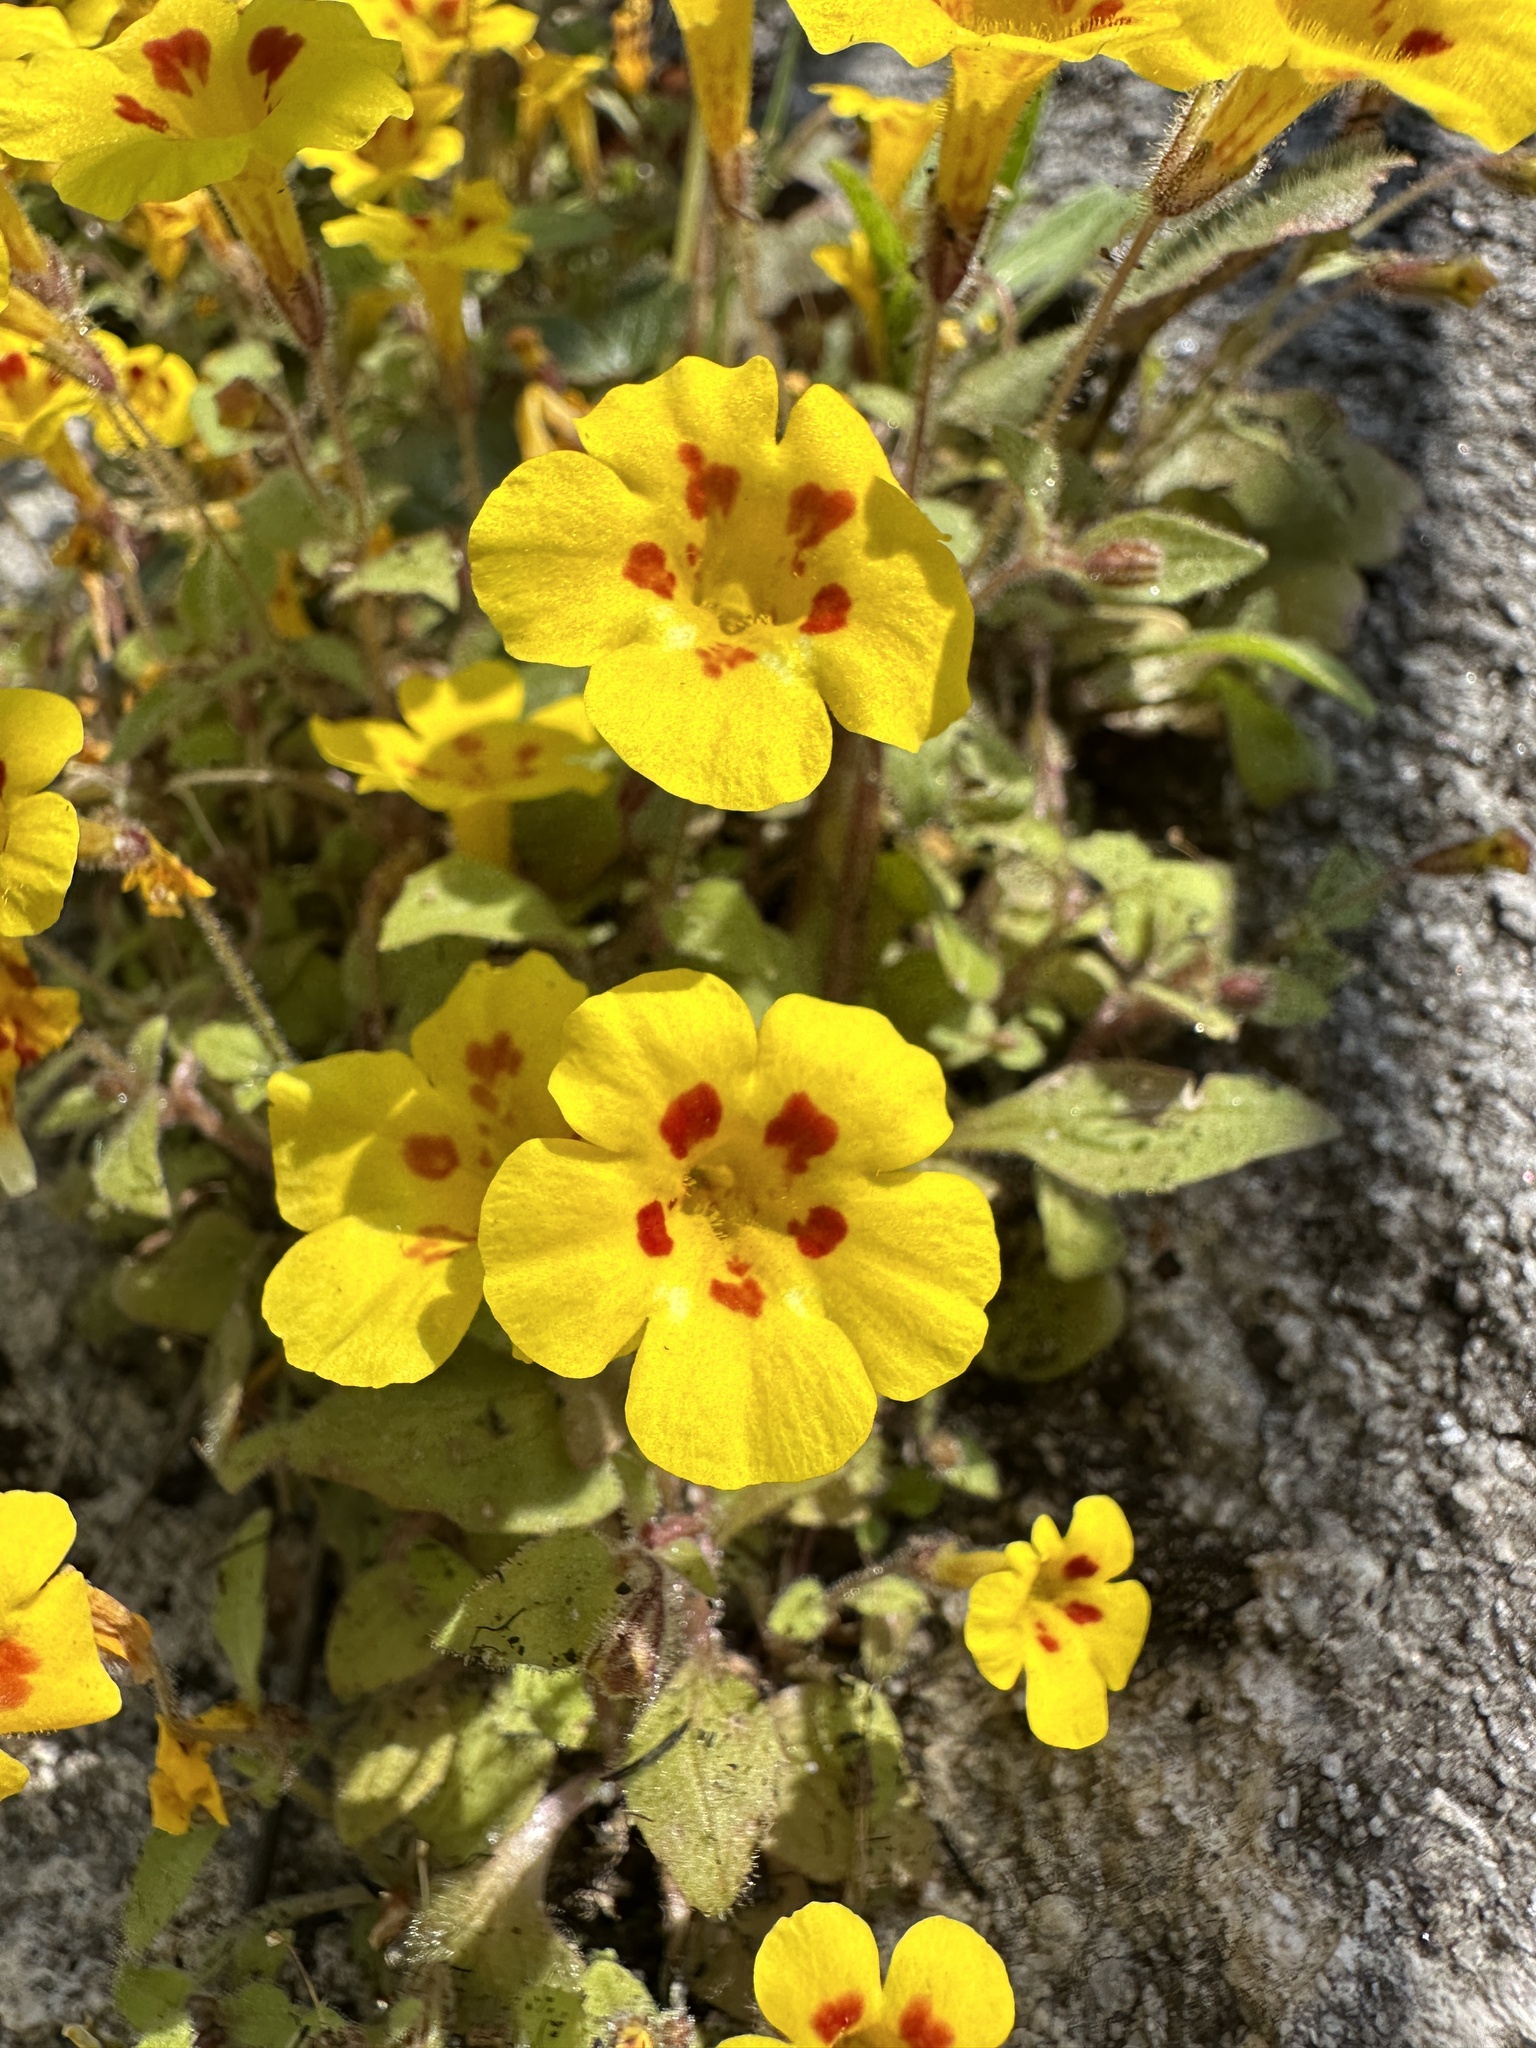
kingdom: Plantae
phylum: Tracheophyta
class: Magnoliopsida
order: Lamiales
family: Phrymaceae
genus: Erythranthe
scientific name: Erythranthe norrisii
